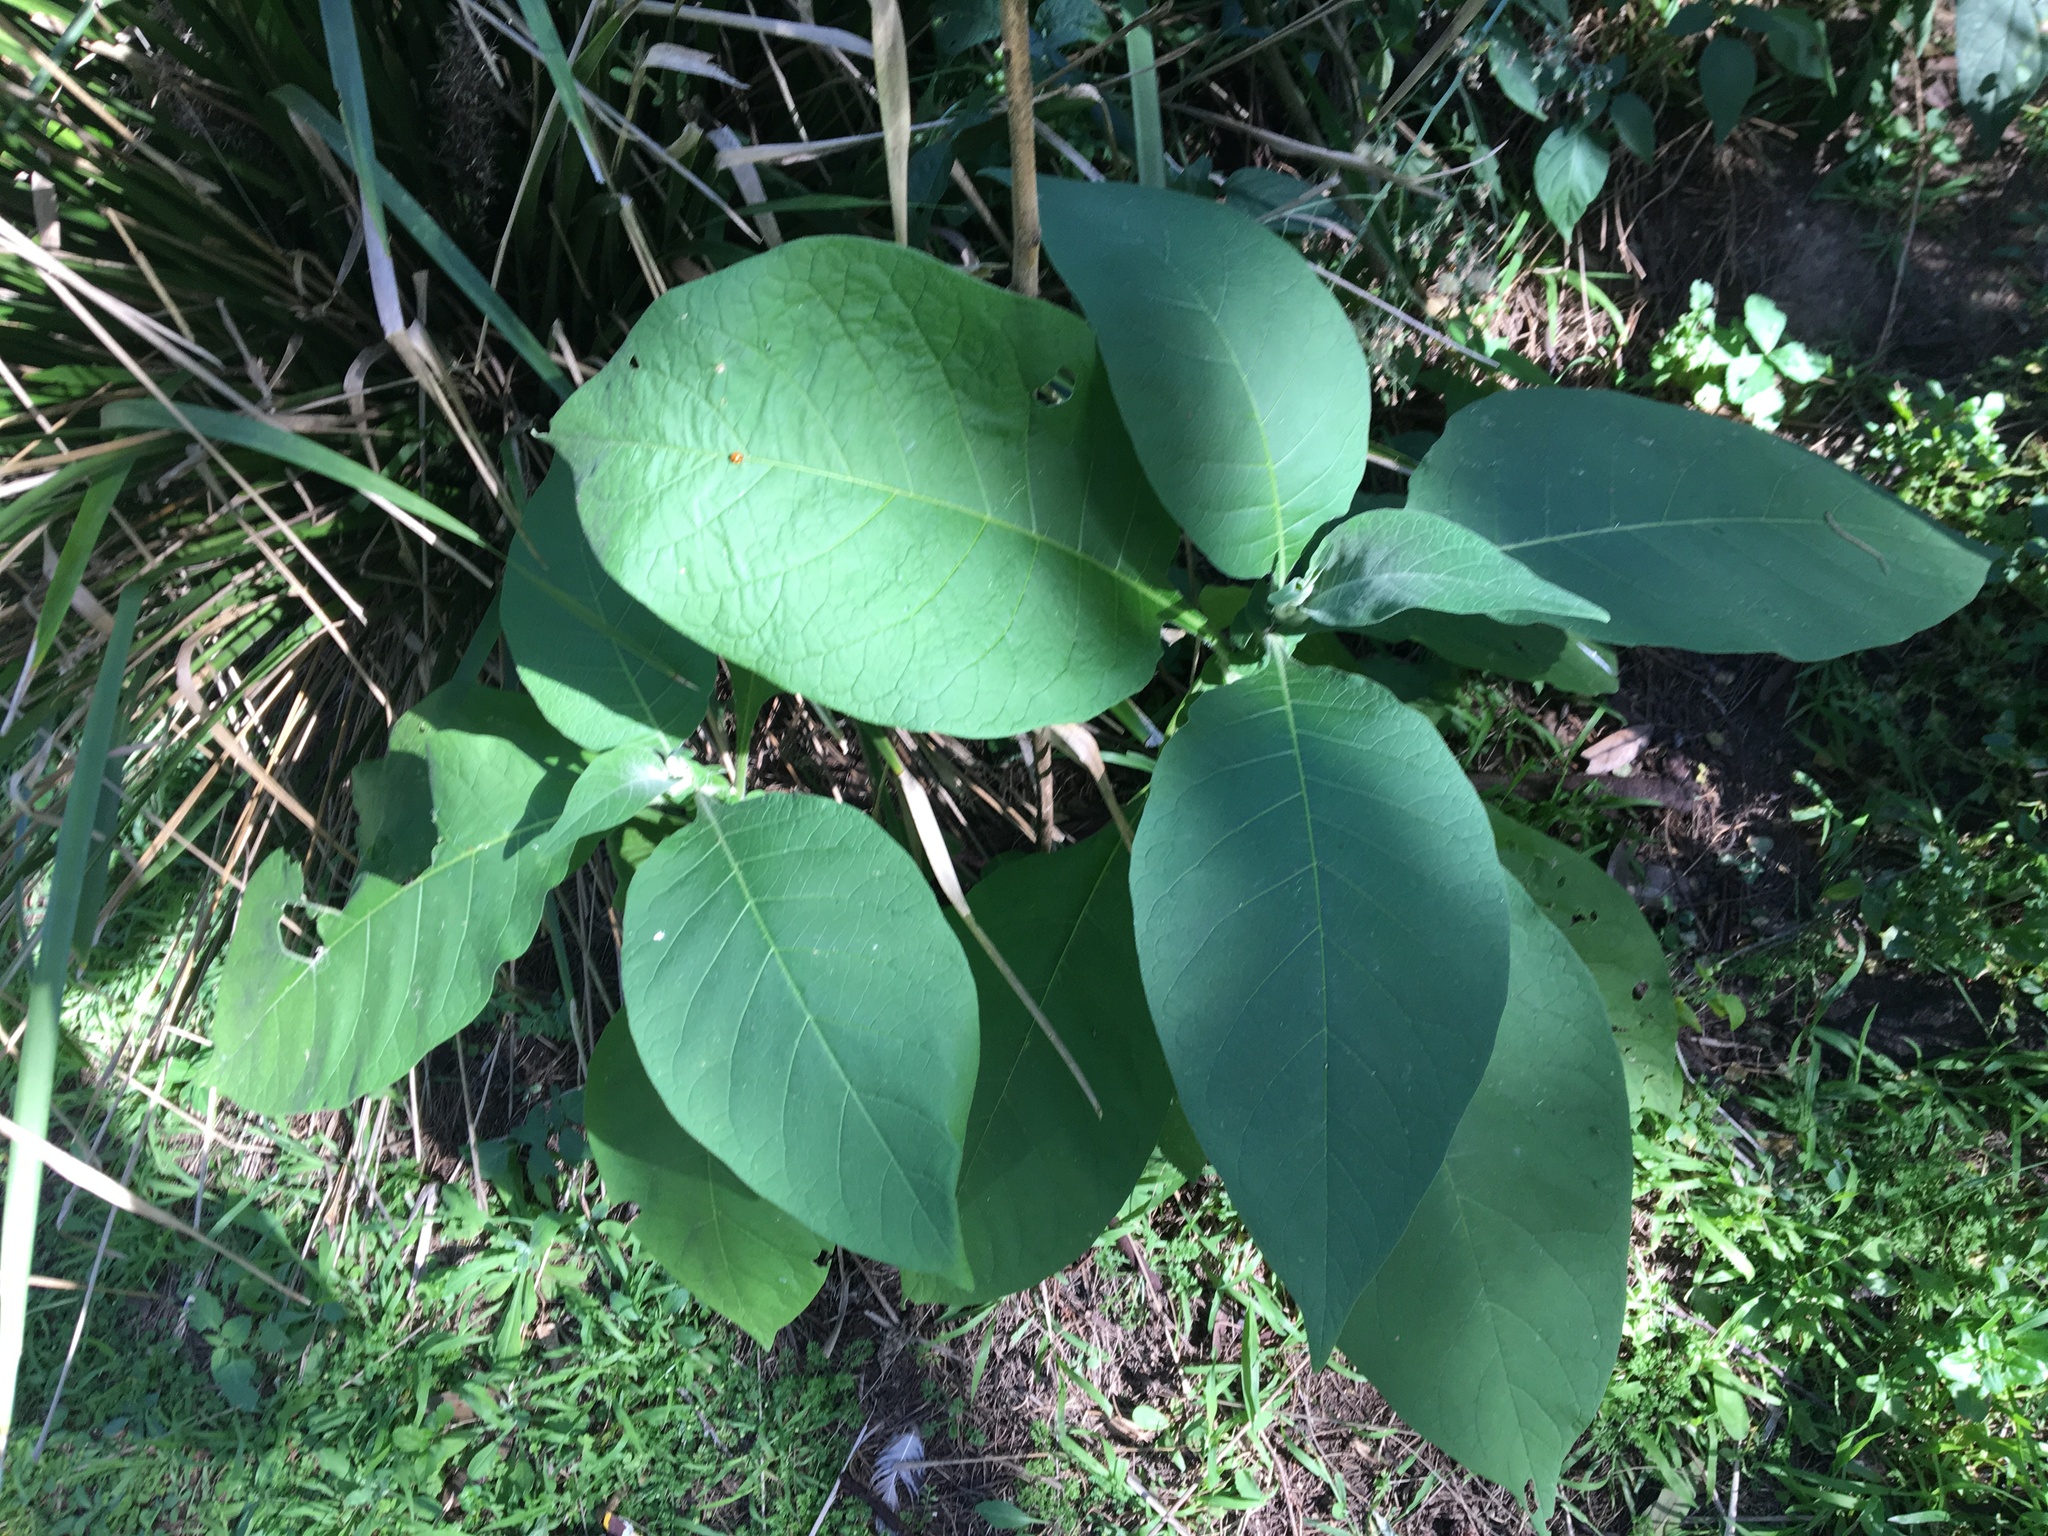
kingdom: Plantae
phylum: Tracheophyta
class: Magnoliopsida
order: Solanales
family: Solanaceae
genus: Solanum
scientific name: Solanum mauritianum
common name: Earleaf nightshade
